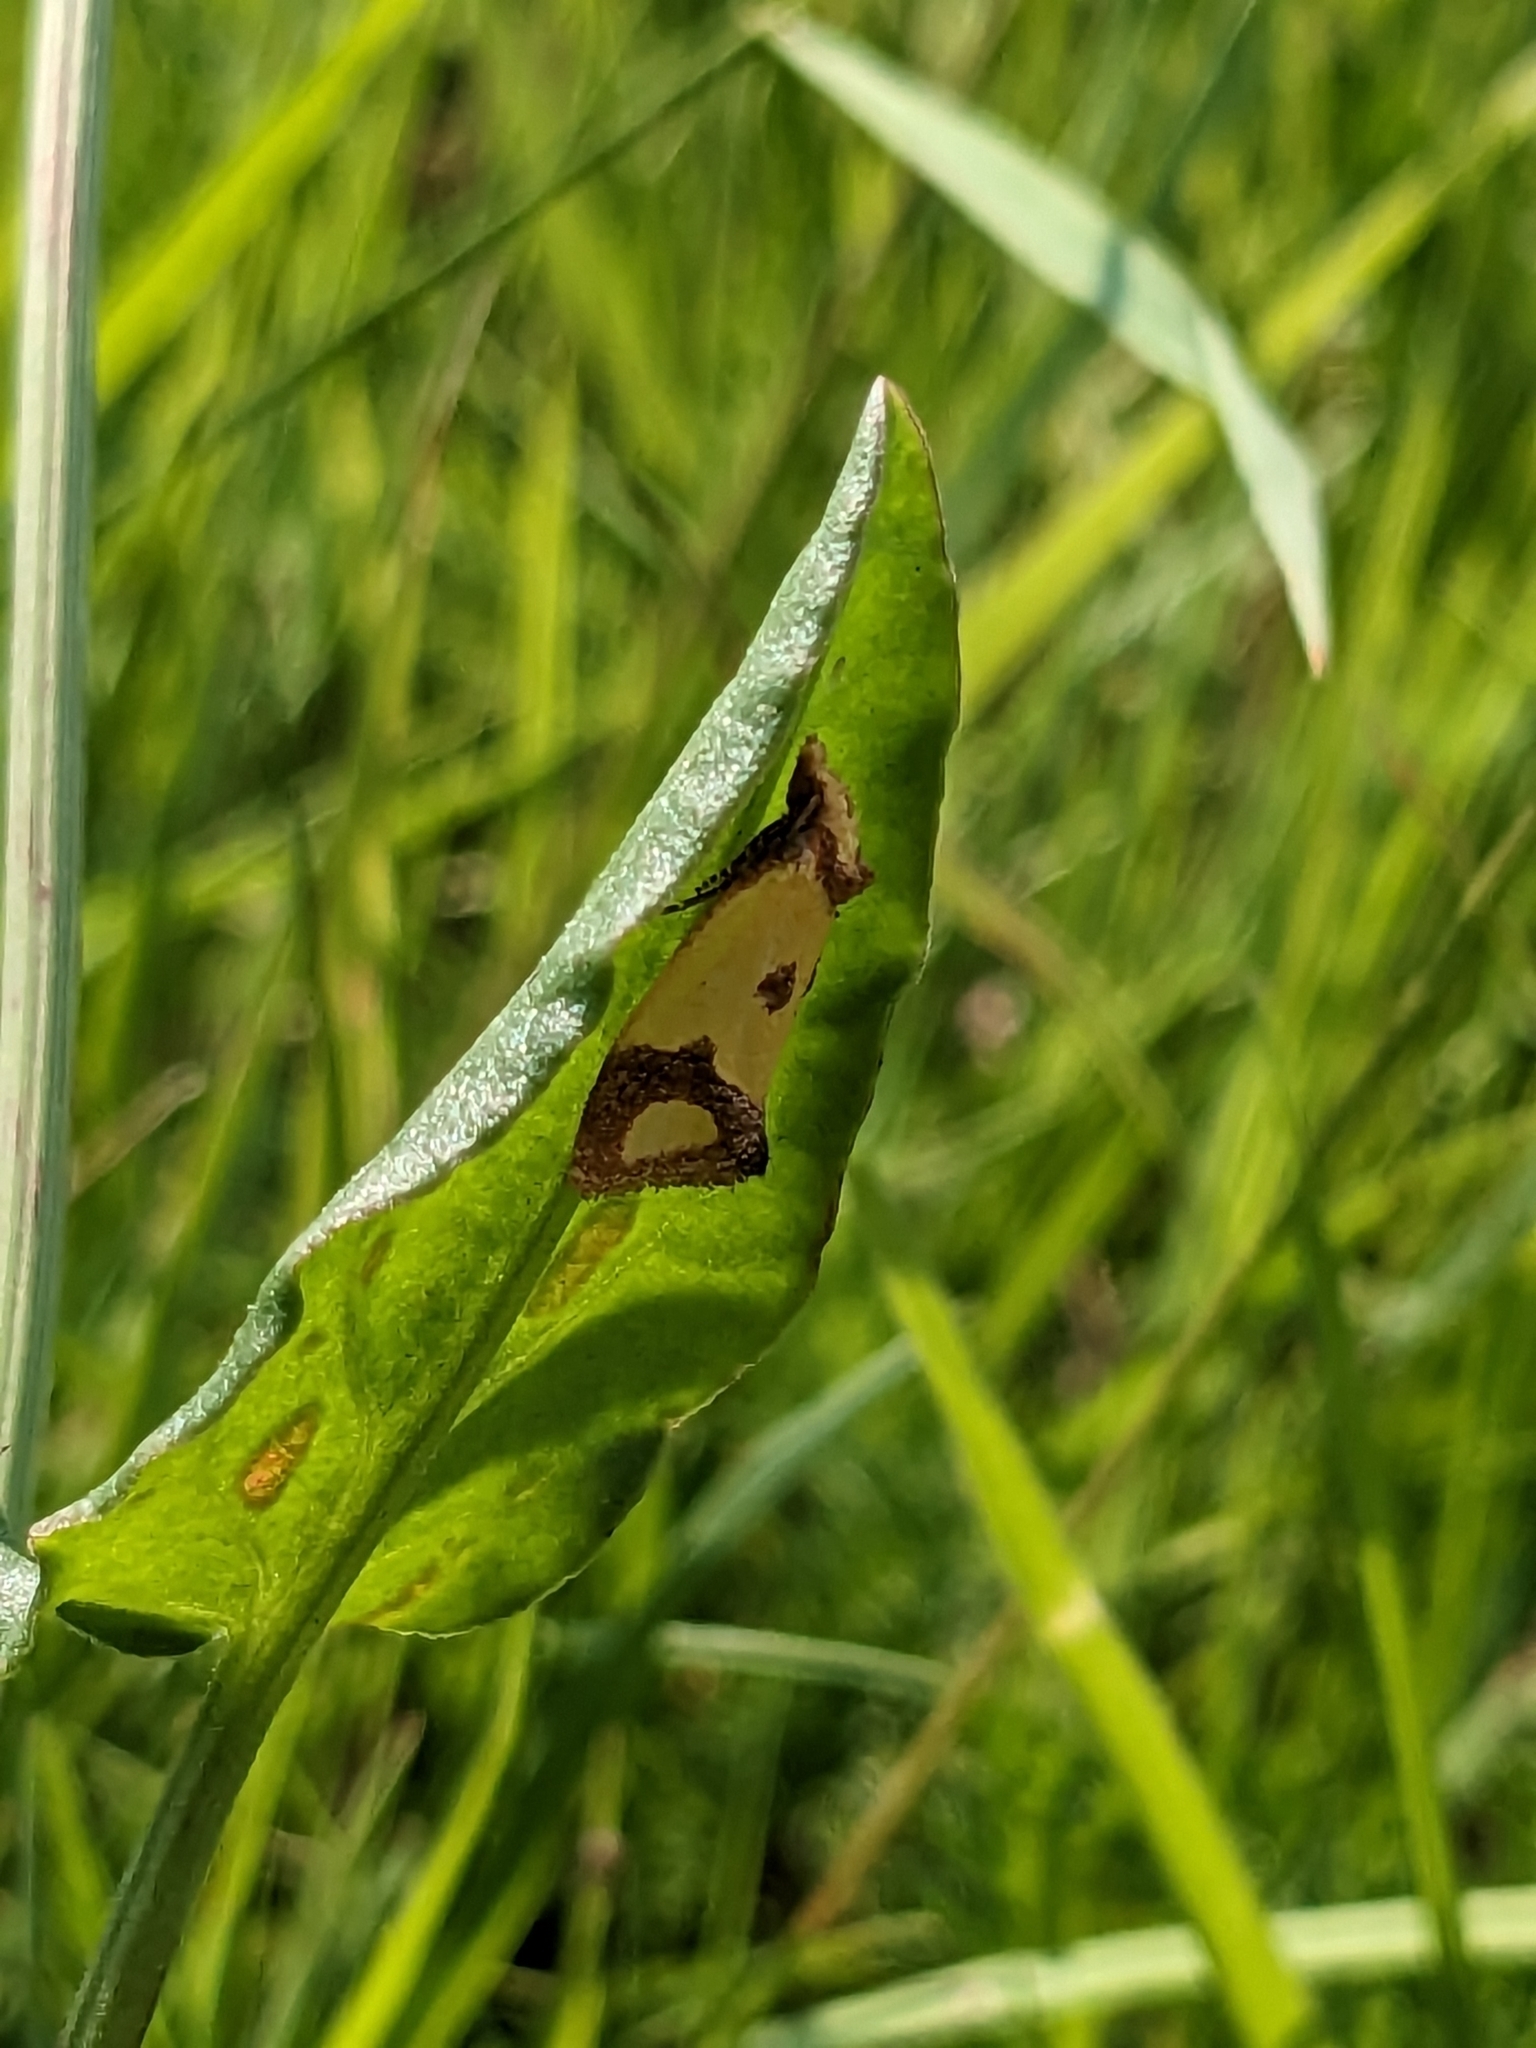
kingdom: Animalia
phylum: Arthropoda
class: Insecta
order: Lepidoptera
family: Tortricidae
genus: Agapeta
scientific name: Agapeta zoegana
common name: Sulfur knapweed root moth
